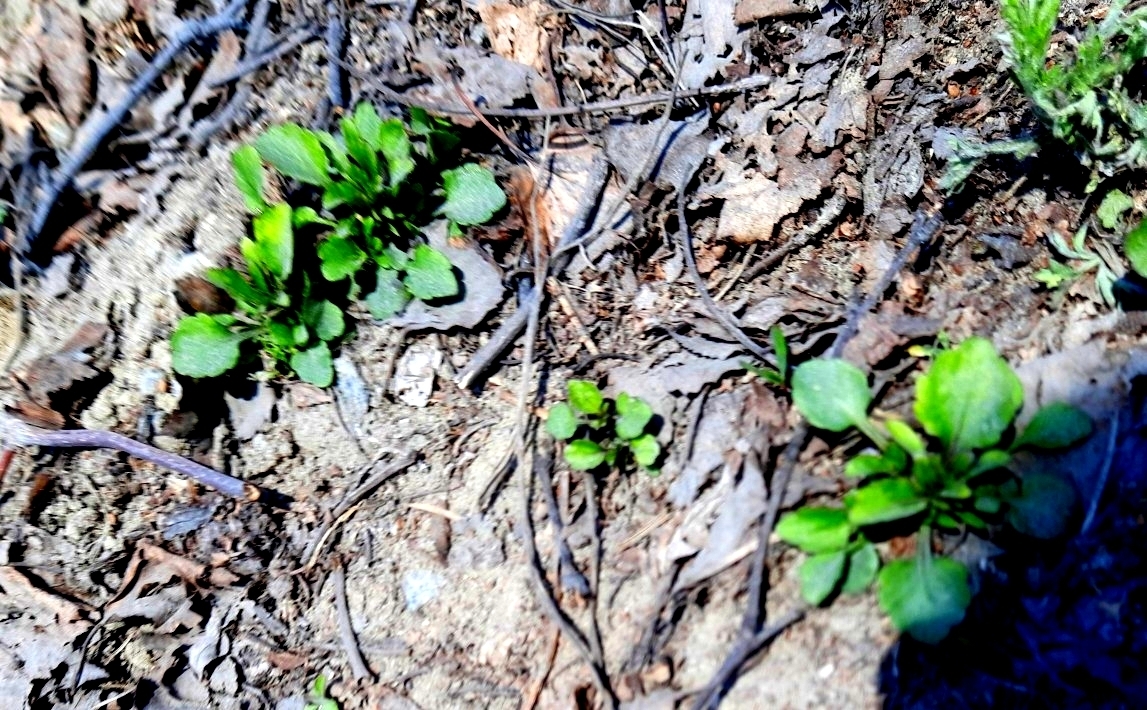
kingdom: Plantae
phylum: Tracheophyta
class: Magnoliopsida
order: Malpighiales
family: Violaceae
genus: Viola
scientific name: Viola arvensis
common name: Field pansy
